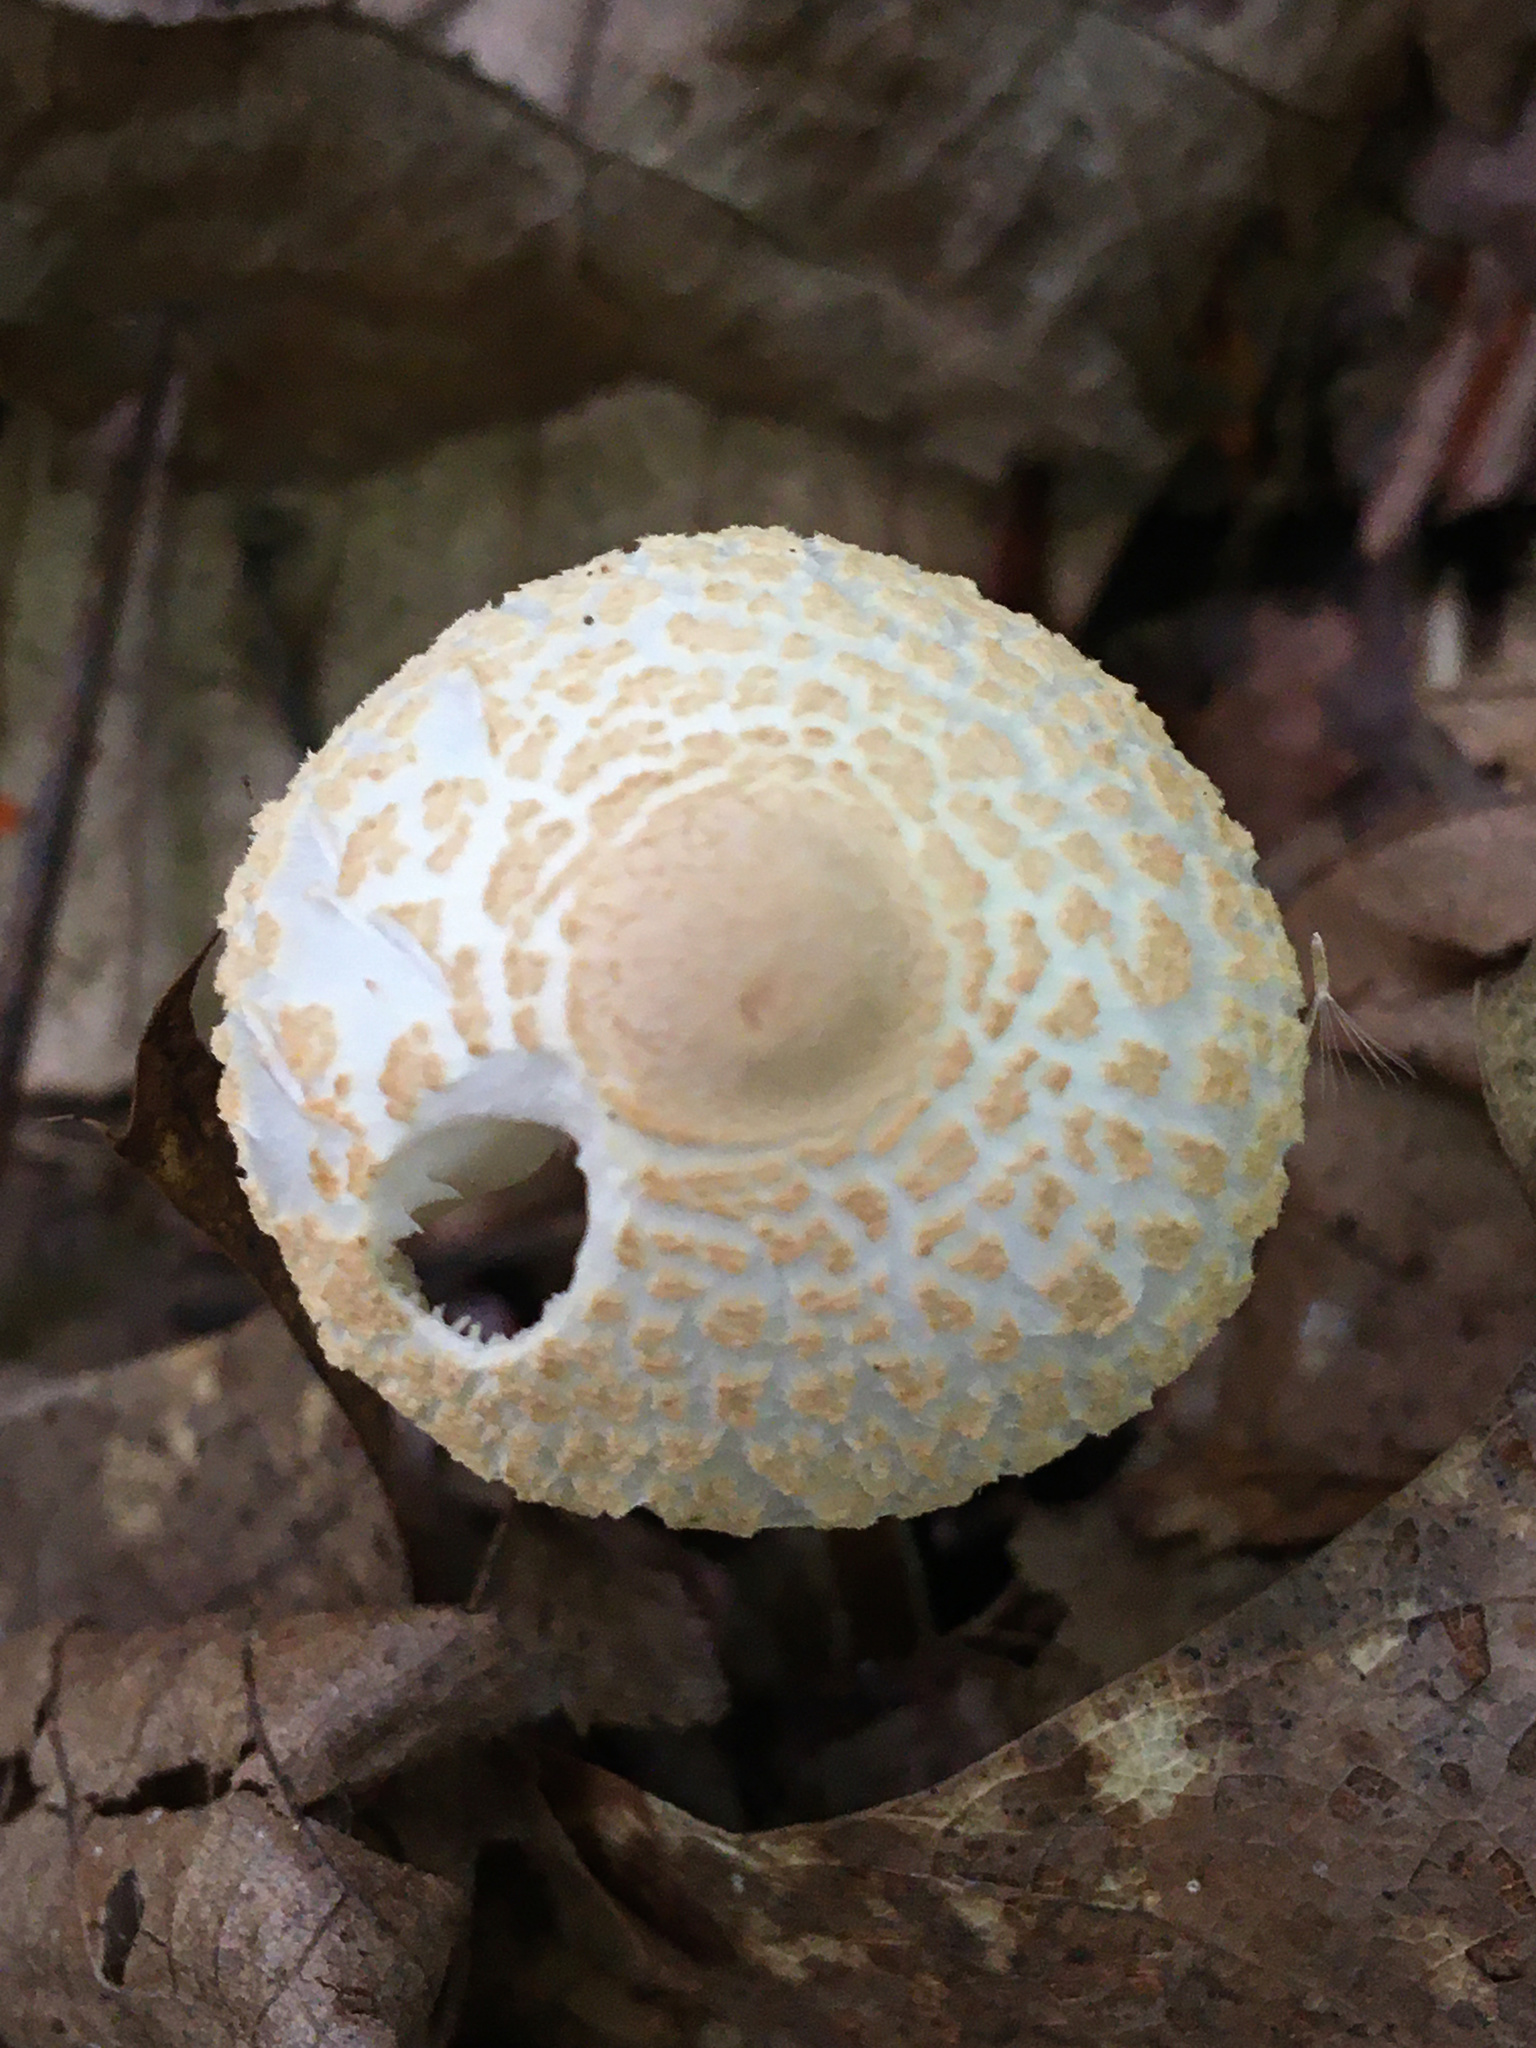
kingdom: Fungi
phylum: Basidiomycota
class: Agaricomycetes
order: Agaricales
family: Agaricaceae
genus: Lepiota
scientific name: Lepiota clypeolaria
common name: Shield dapperling
